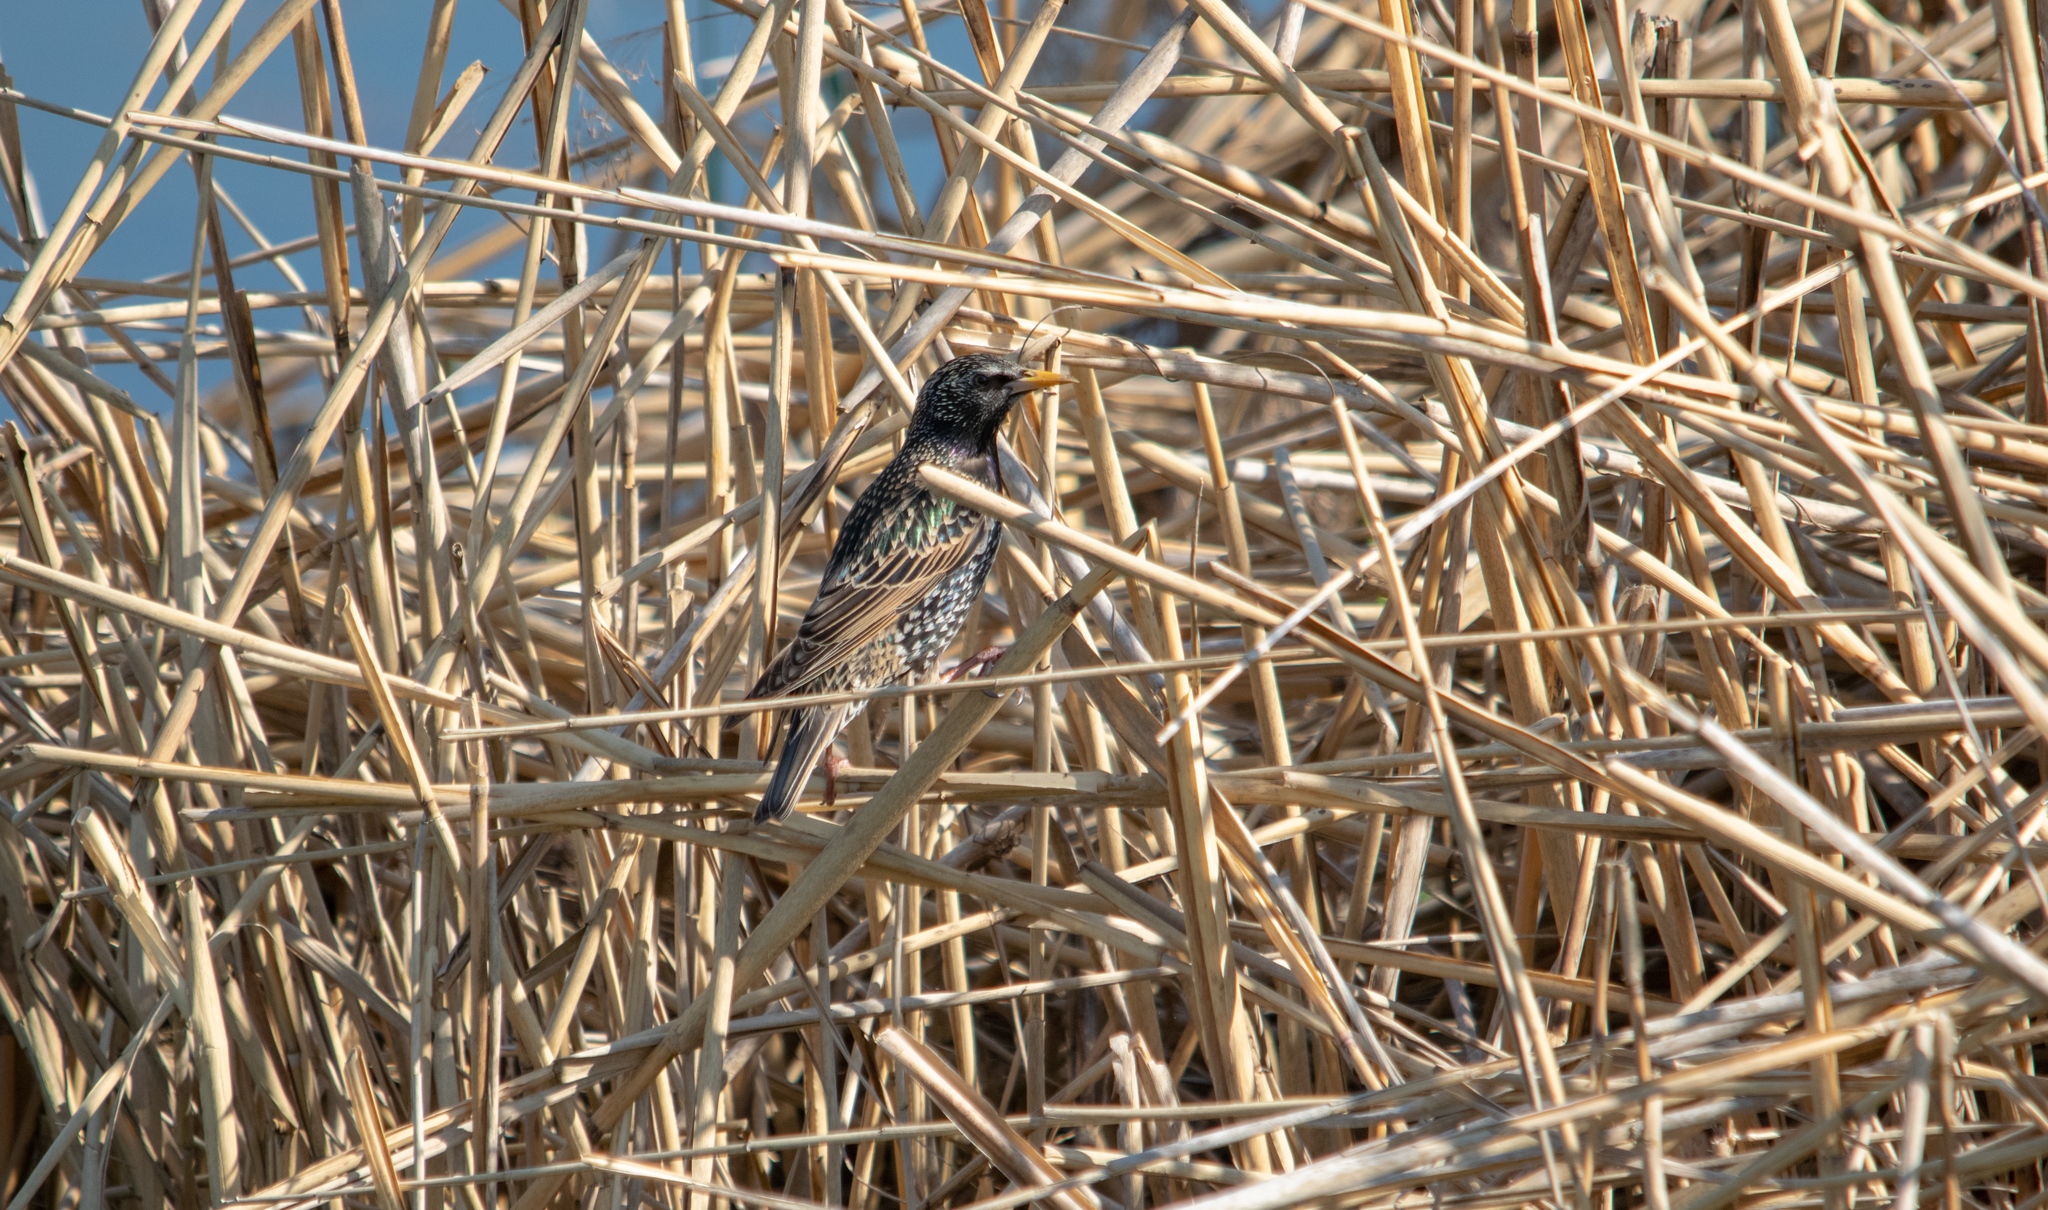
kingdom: Animalia
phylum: Chordata
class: Aves
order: Passeriformes
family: Sturnidae
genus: Sturnus
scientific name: Sturnus vulgaris
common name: Common starling
